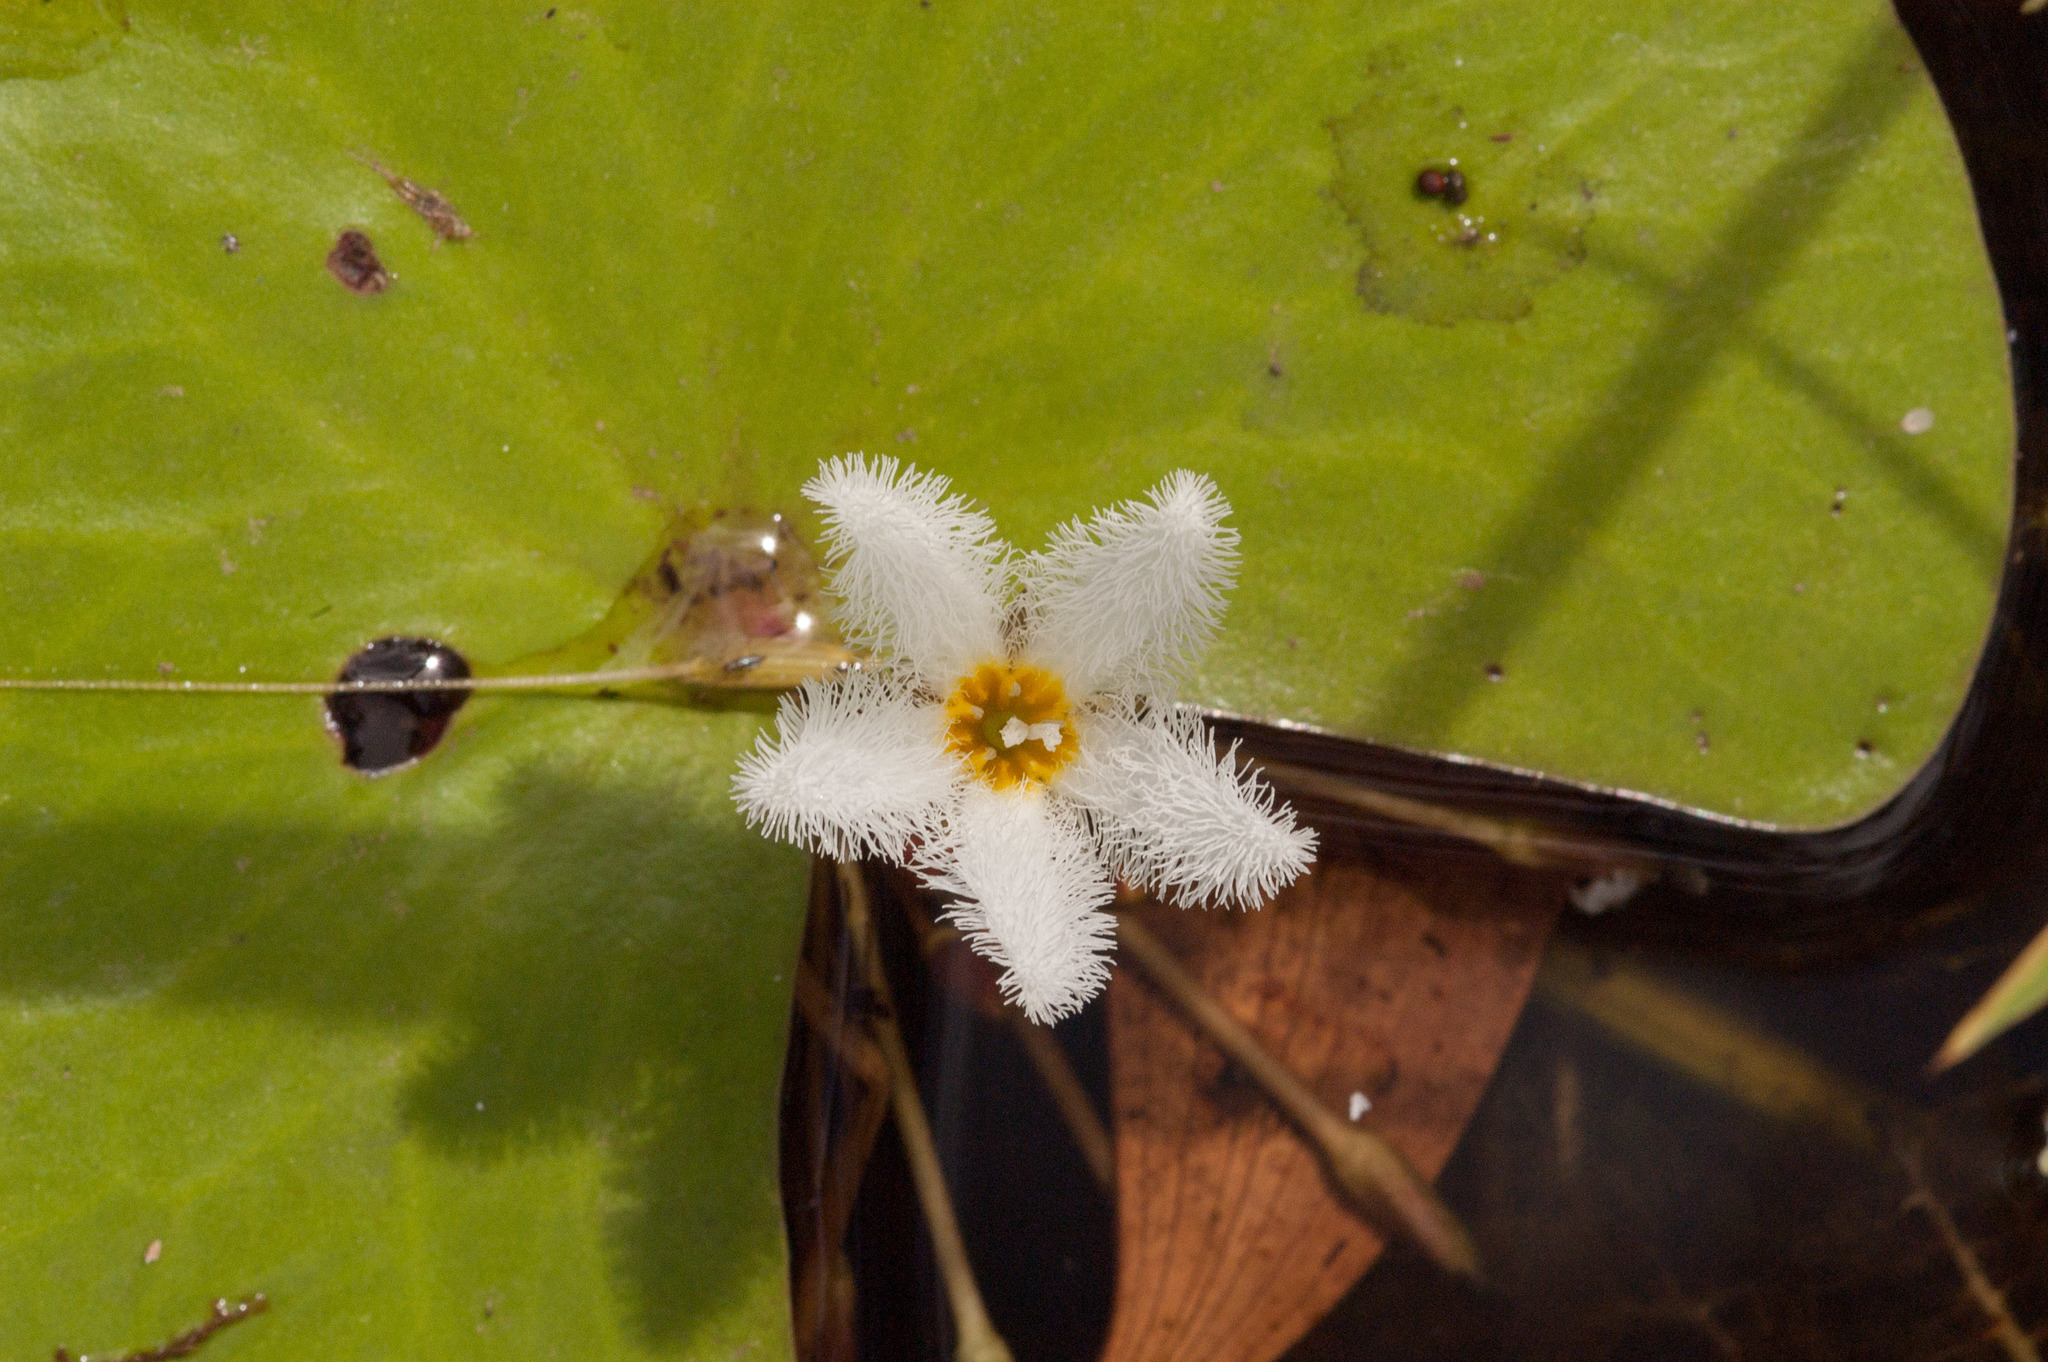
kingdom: Plantae
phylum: Tracheophyta
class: Magnoliopsida
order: Asterales
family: Menyanthaceae
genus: Nymphoides
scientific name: Nymphoides indica
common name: Water-snowflake
